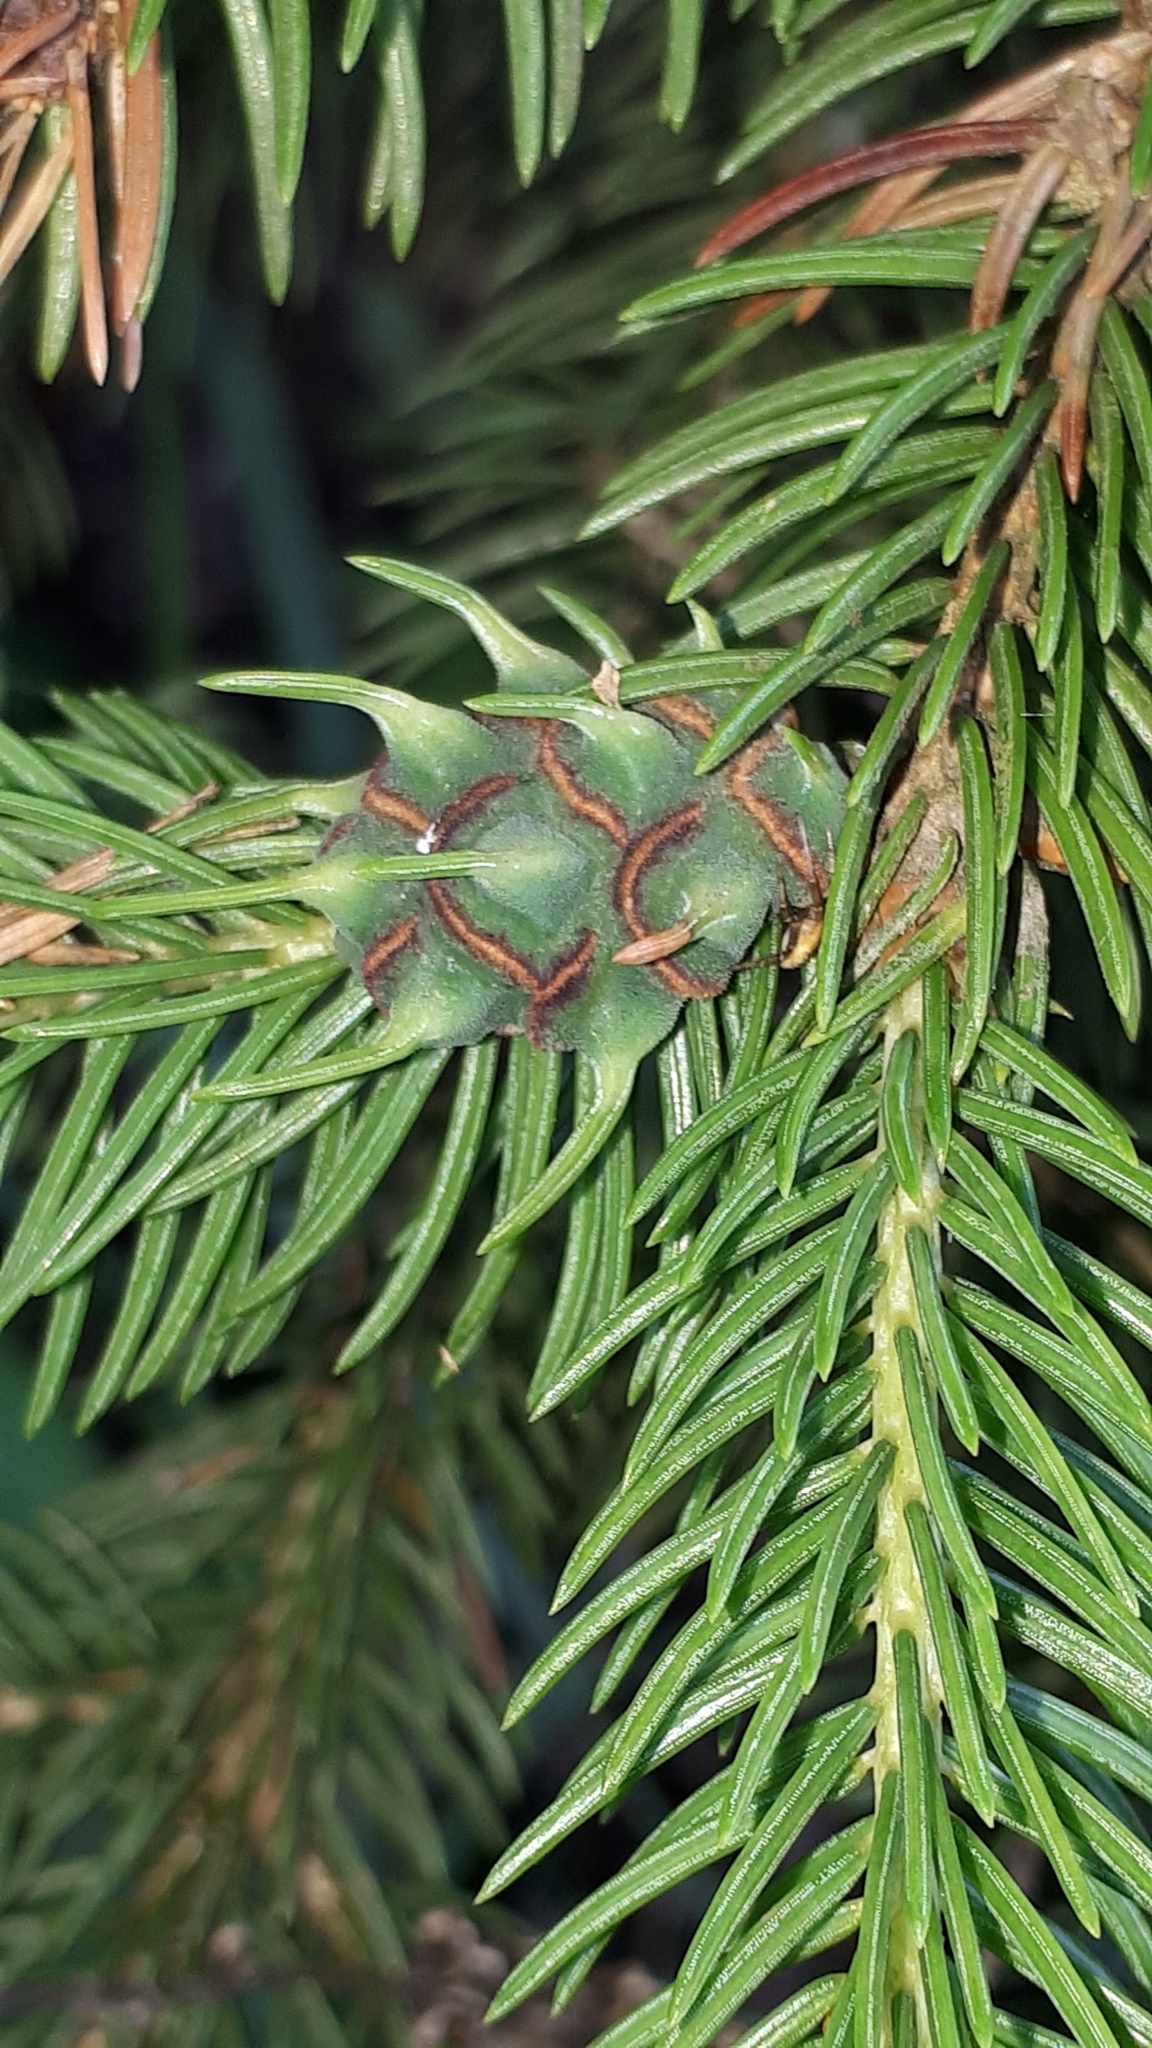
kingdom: Animalia
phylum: Arthropoda
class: Insecta
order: Hemiptera
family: Adelgidae
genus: Adelges
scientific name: Adelges abietis
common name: Eastern spruce gall adelgid
